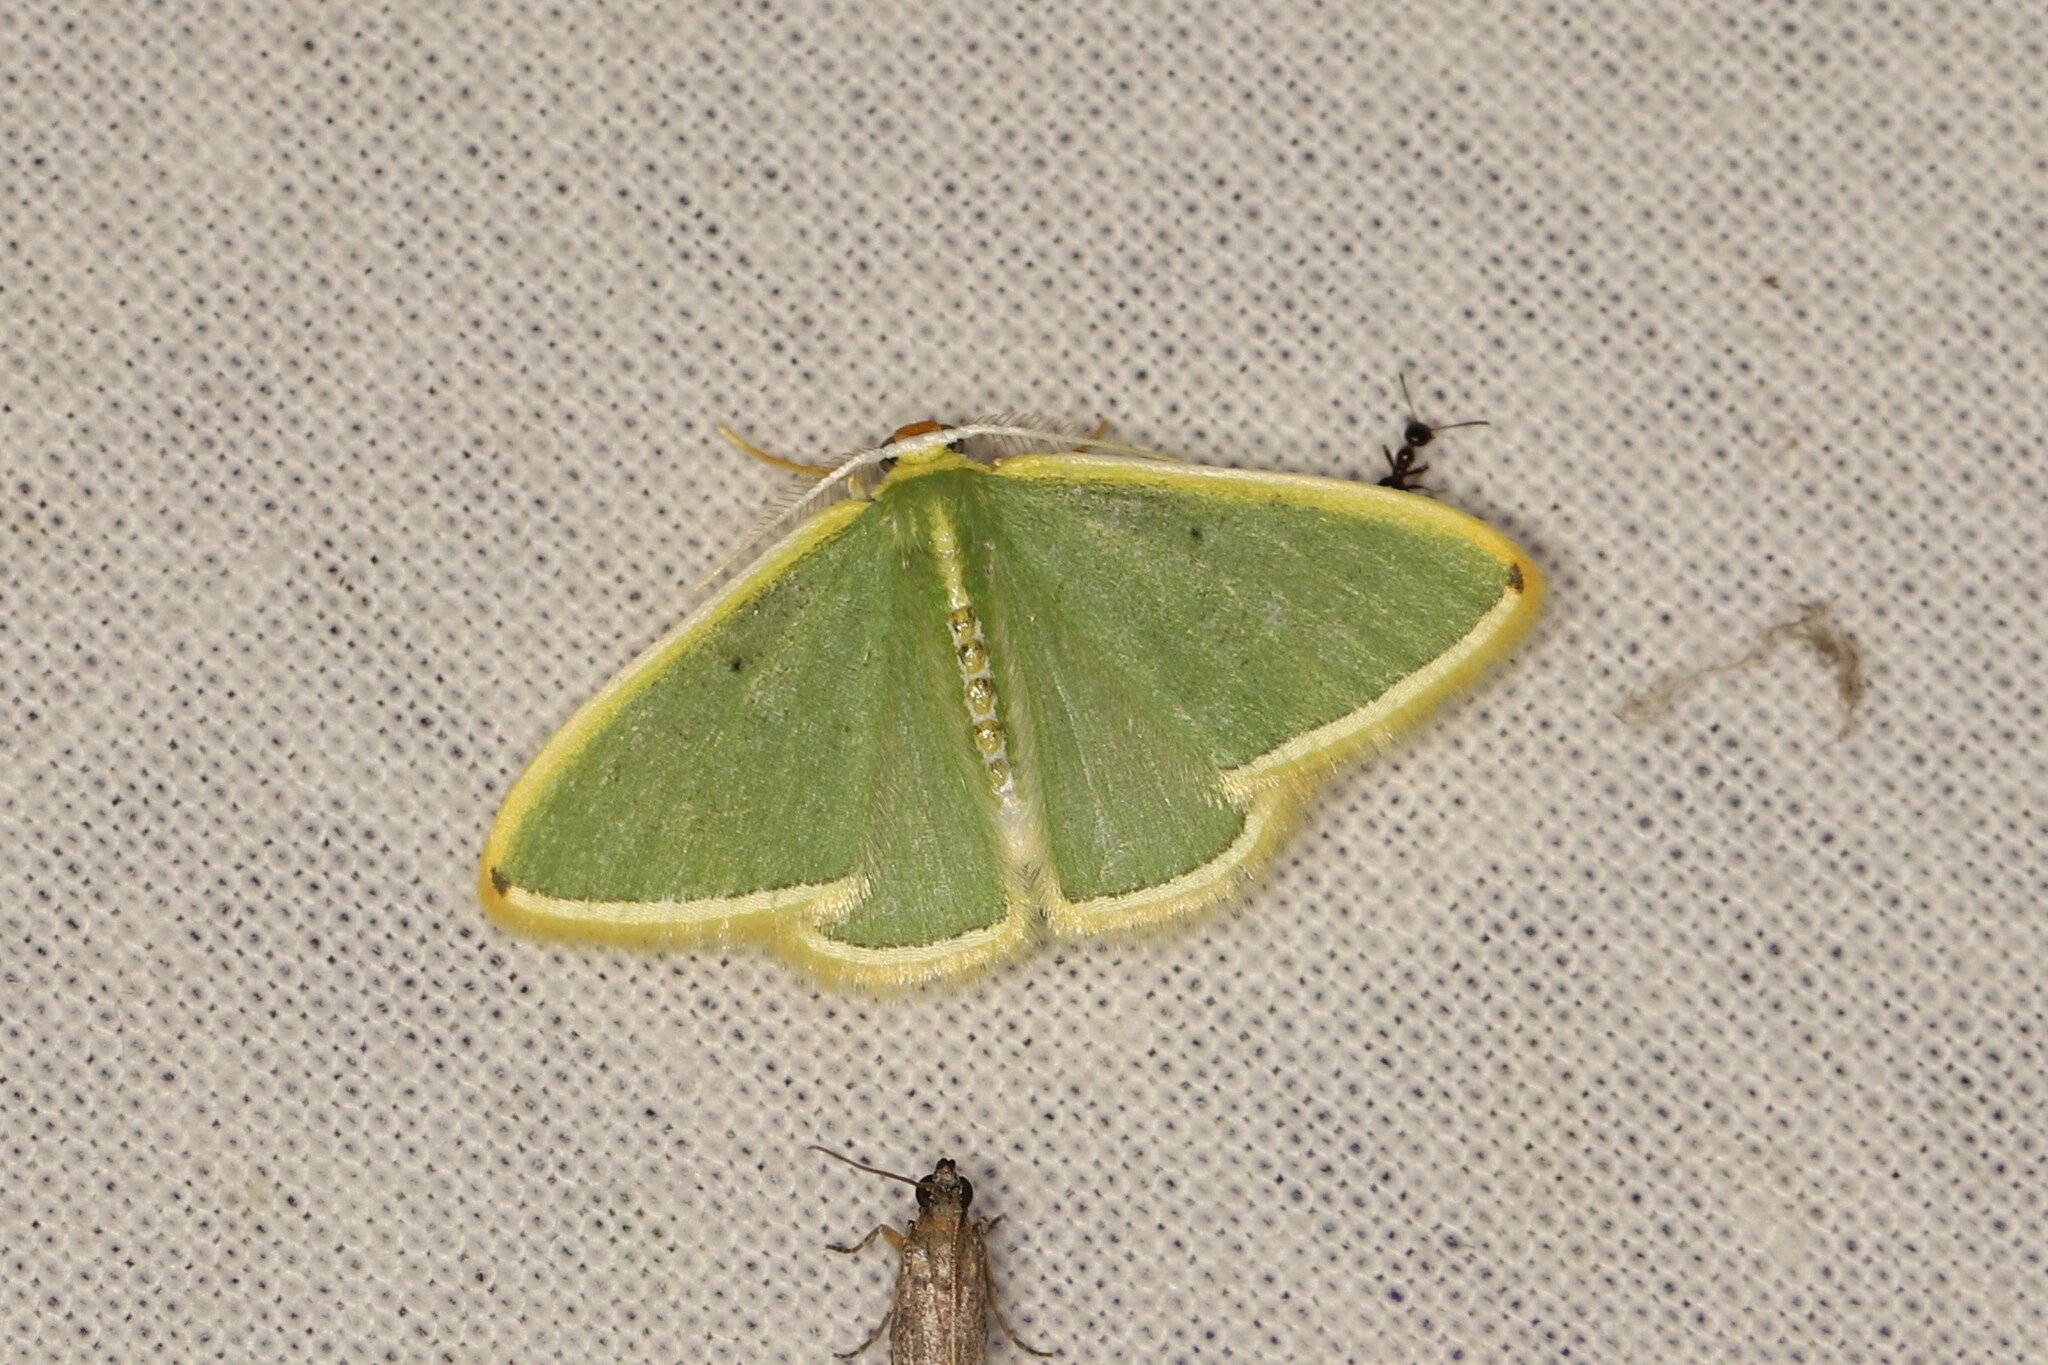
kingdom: Animalia
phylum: Arthropoda
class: Insecta
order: Lepidoptera
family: Geometridae
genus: Oospila
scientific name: Oospila flavilimes
